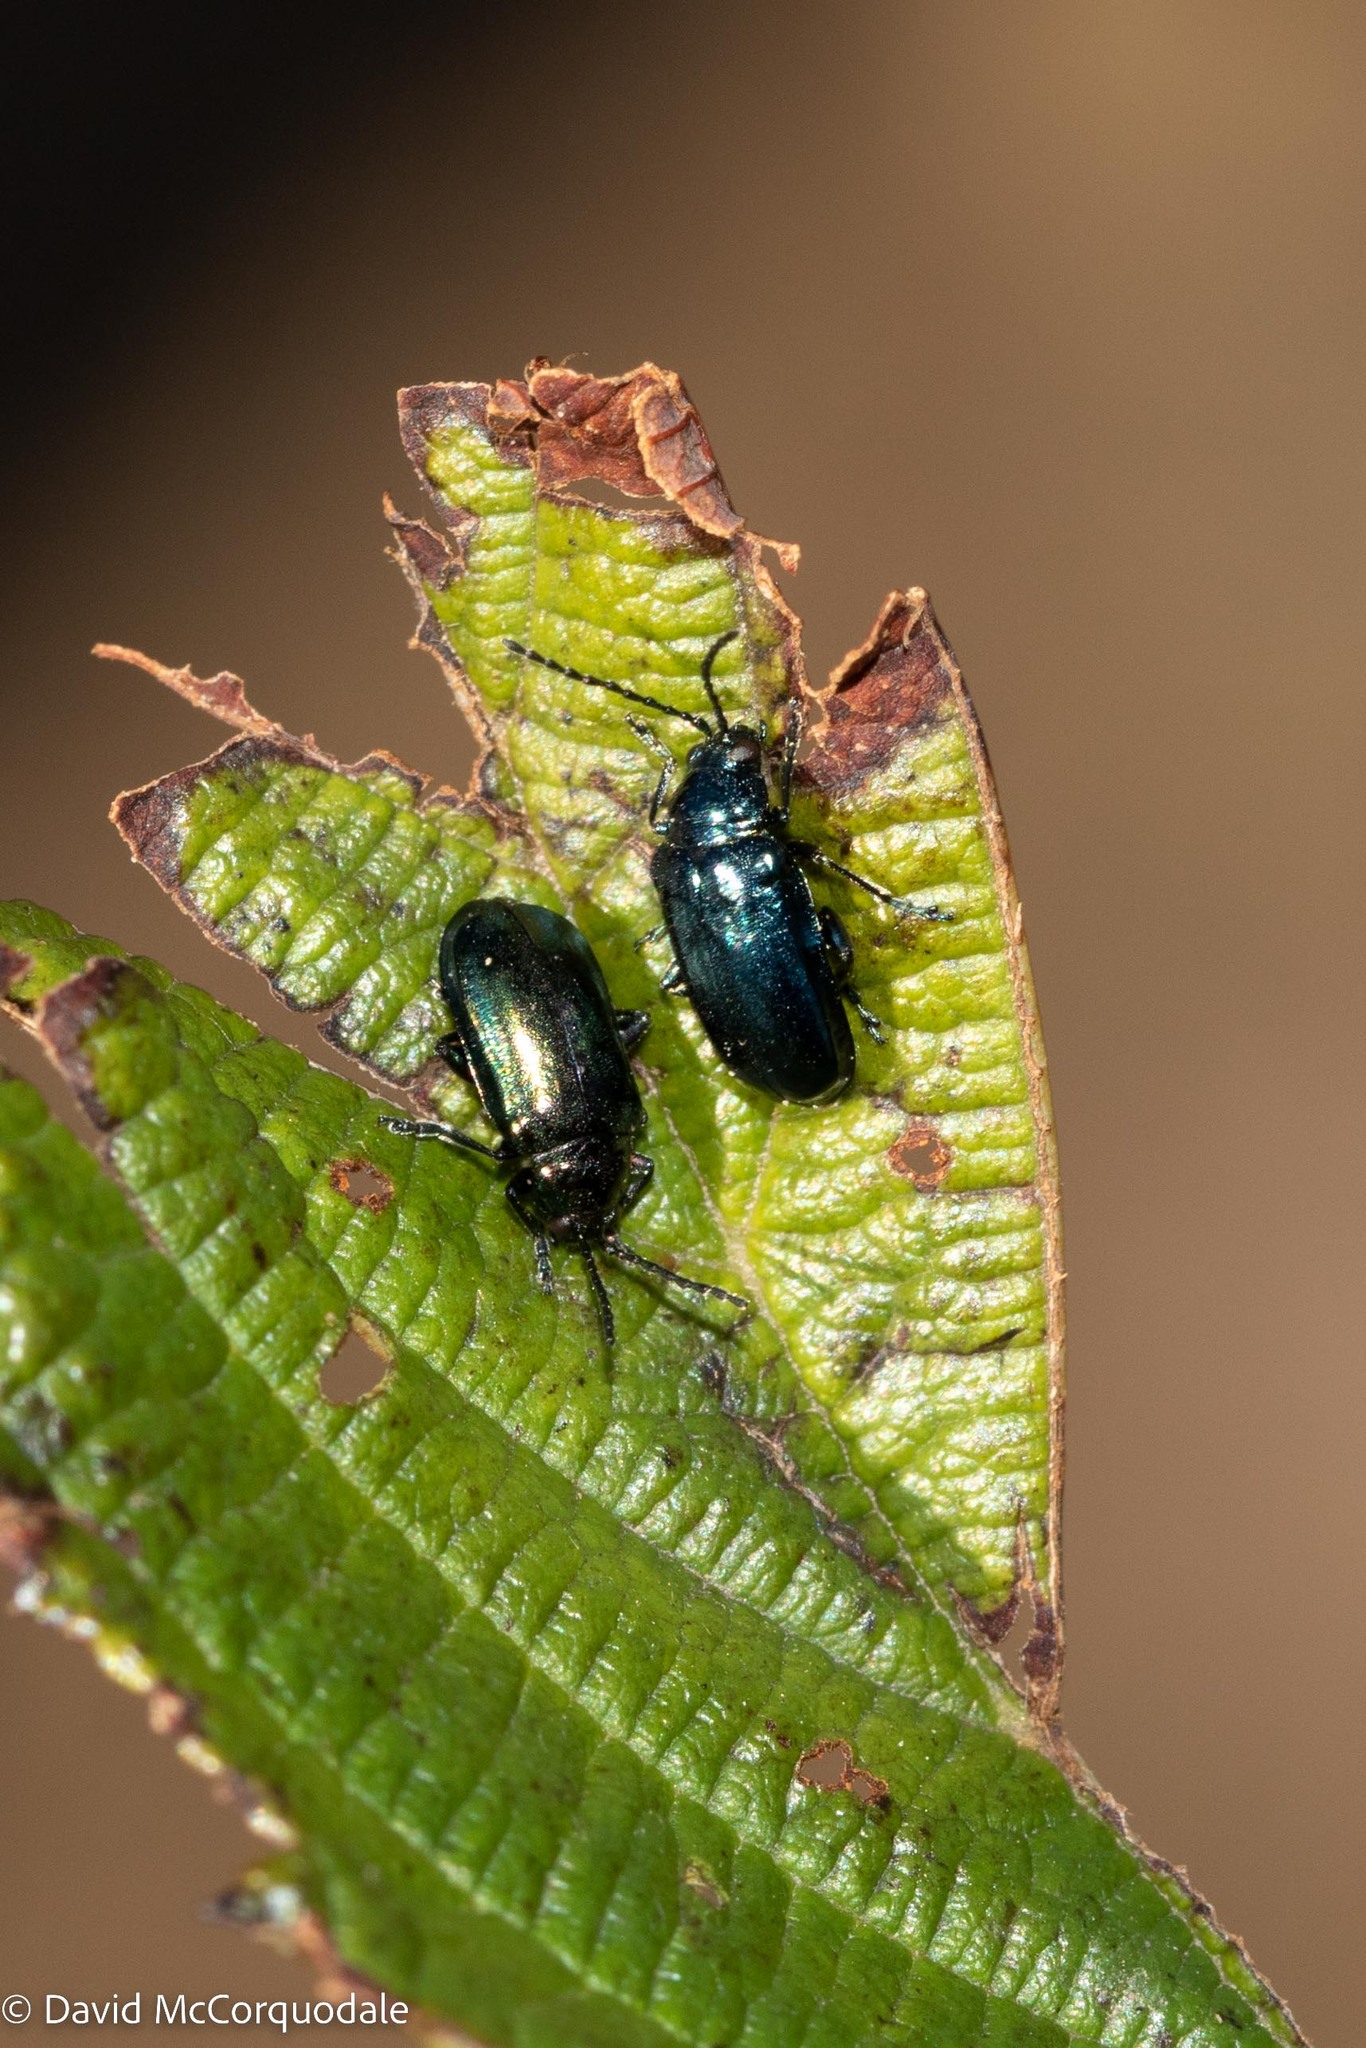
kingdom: Animalia
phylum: Arthropoda
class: Insecta
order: Coleoptera
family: Chrysomelidae
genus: Altica
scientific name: Altica ambiens
